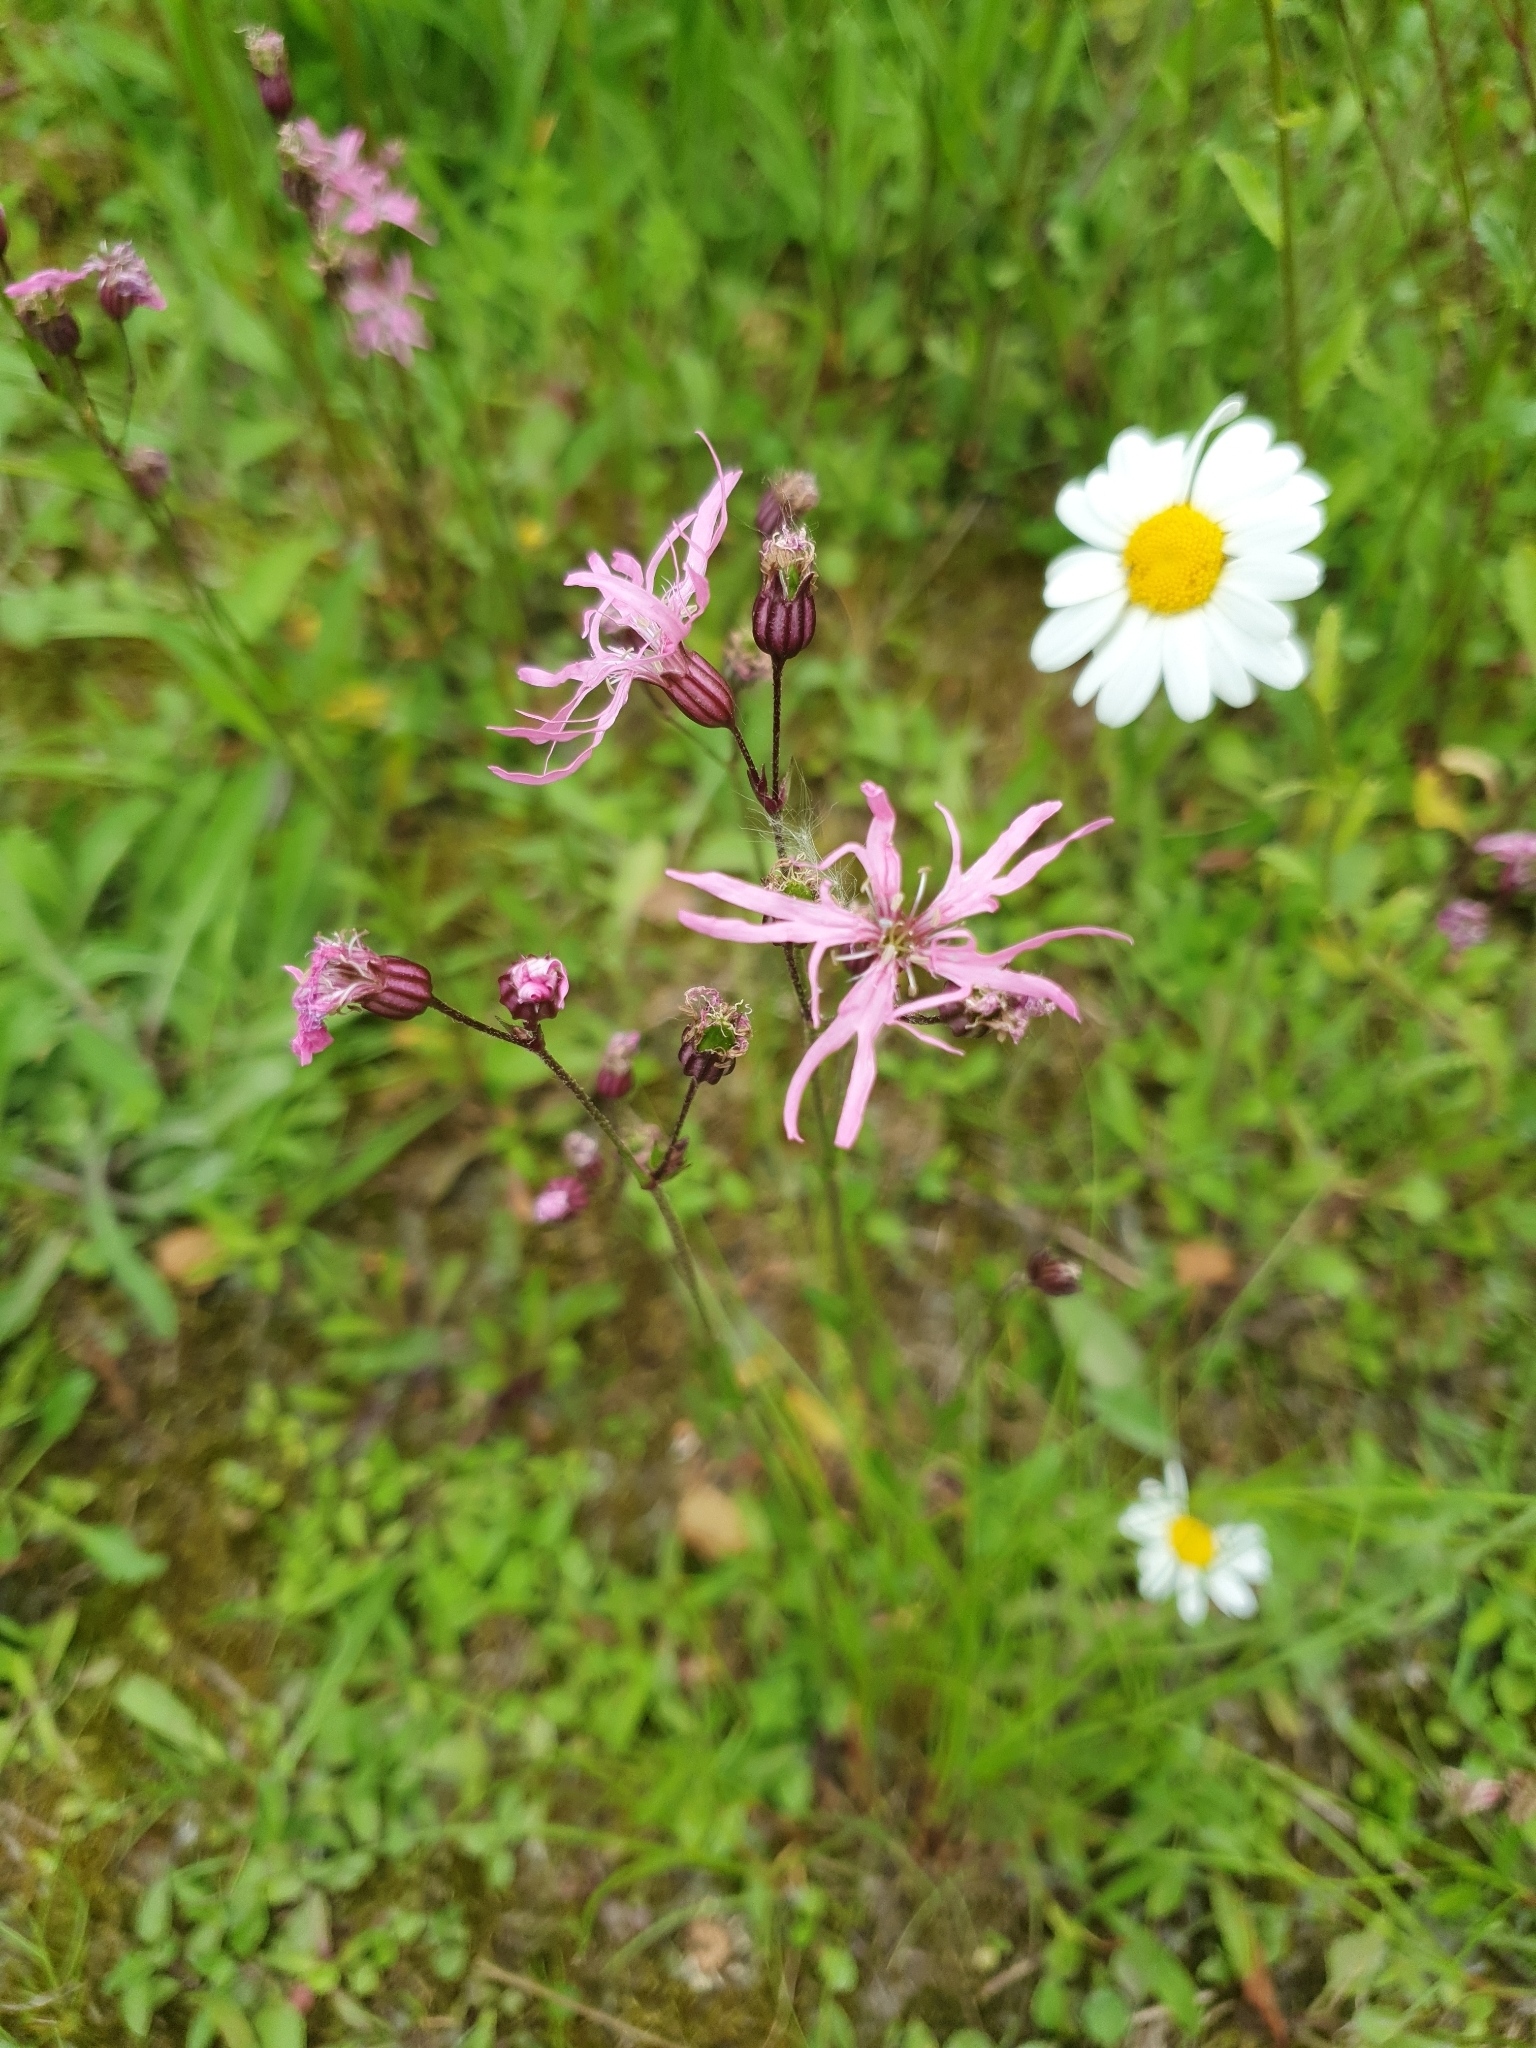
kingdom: Plantae
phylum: Tracheophyta
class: Magnoliopsida
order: Caryophyllales
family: Caryophyllaceae
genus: Silene
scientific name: Silene flos-cuculi
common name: Ragged-robin
